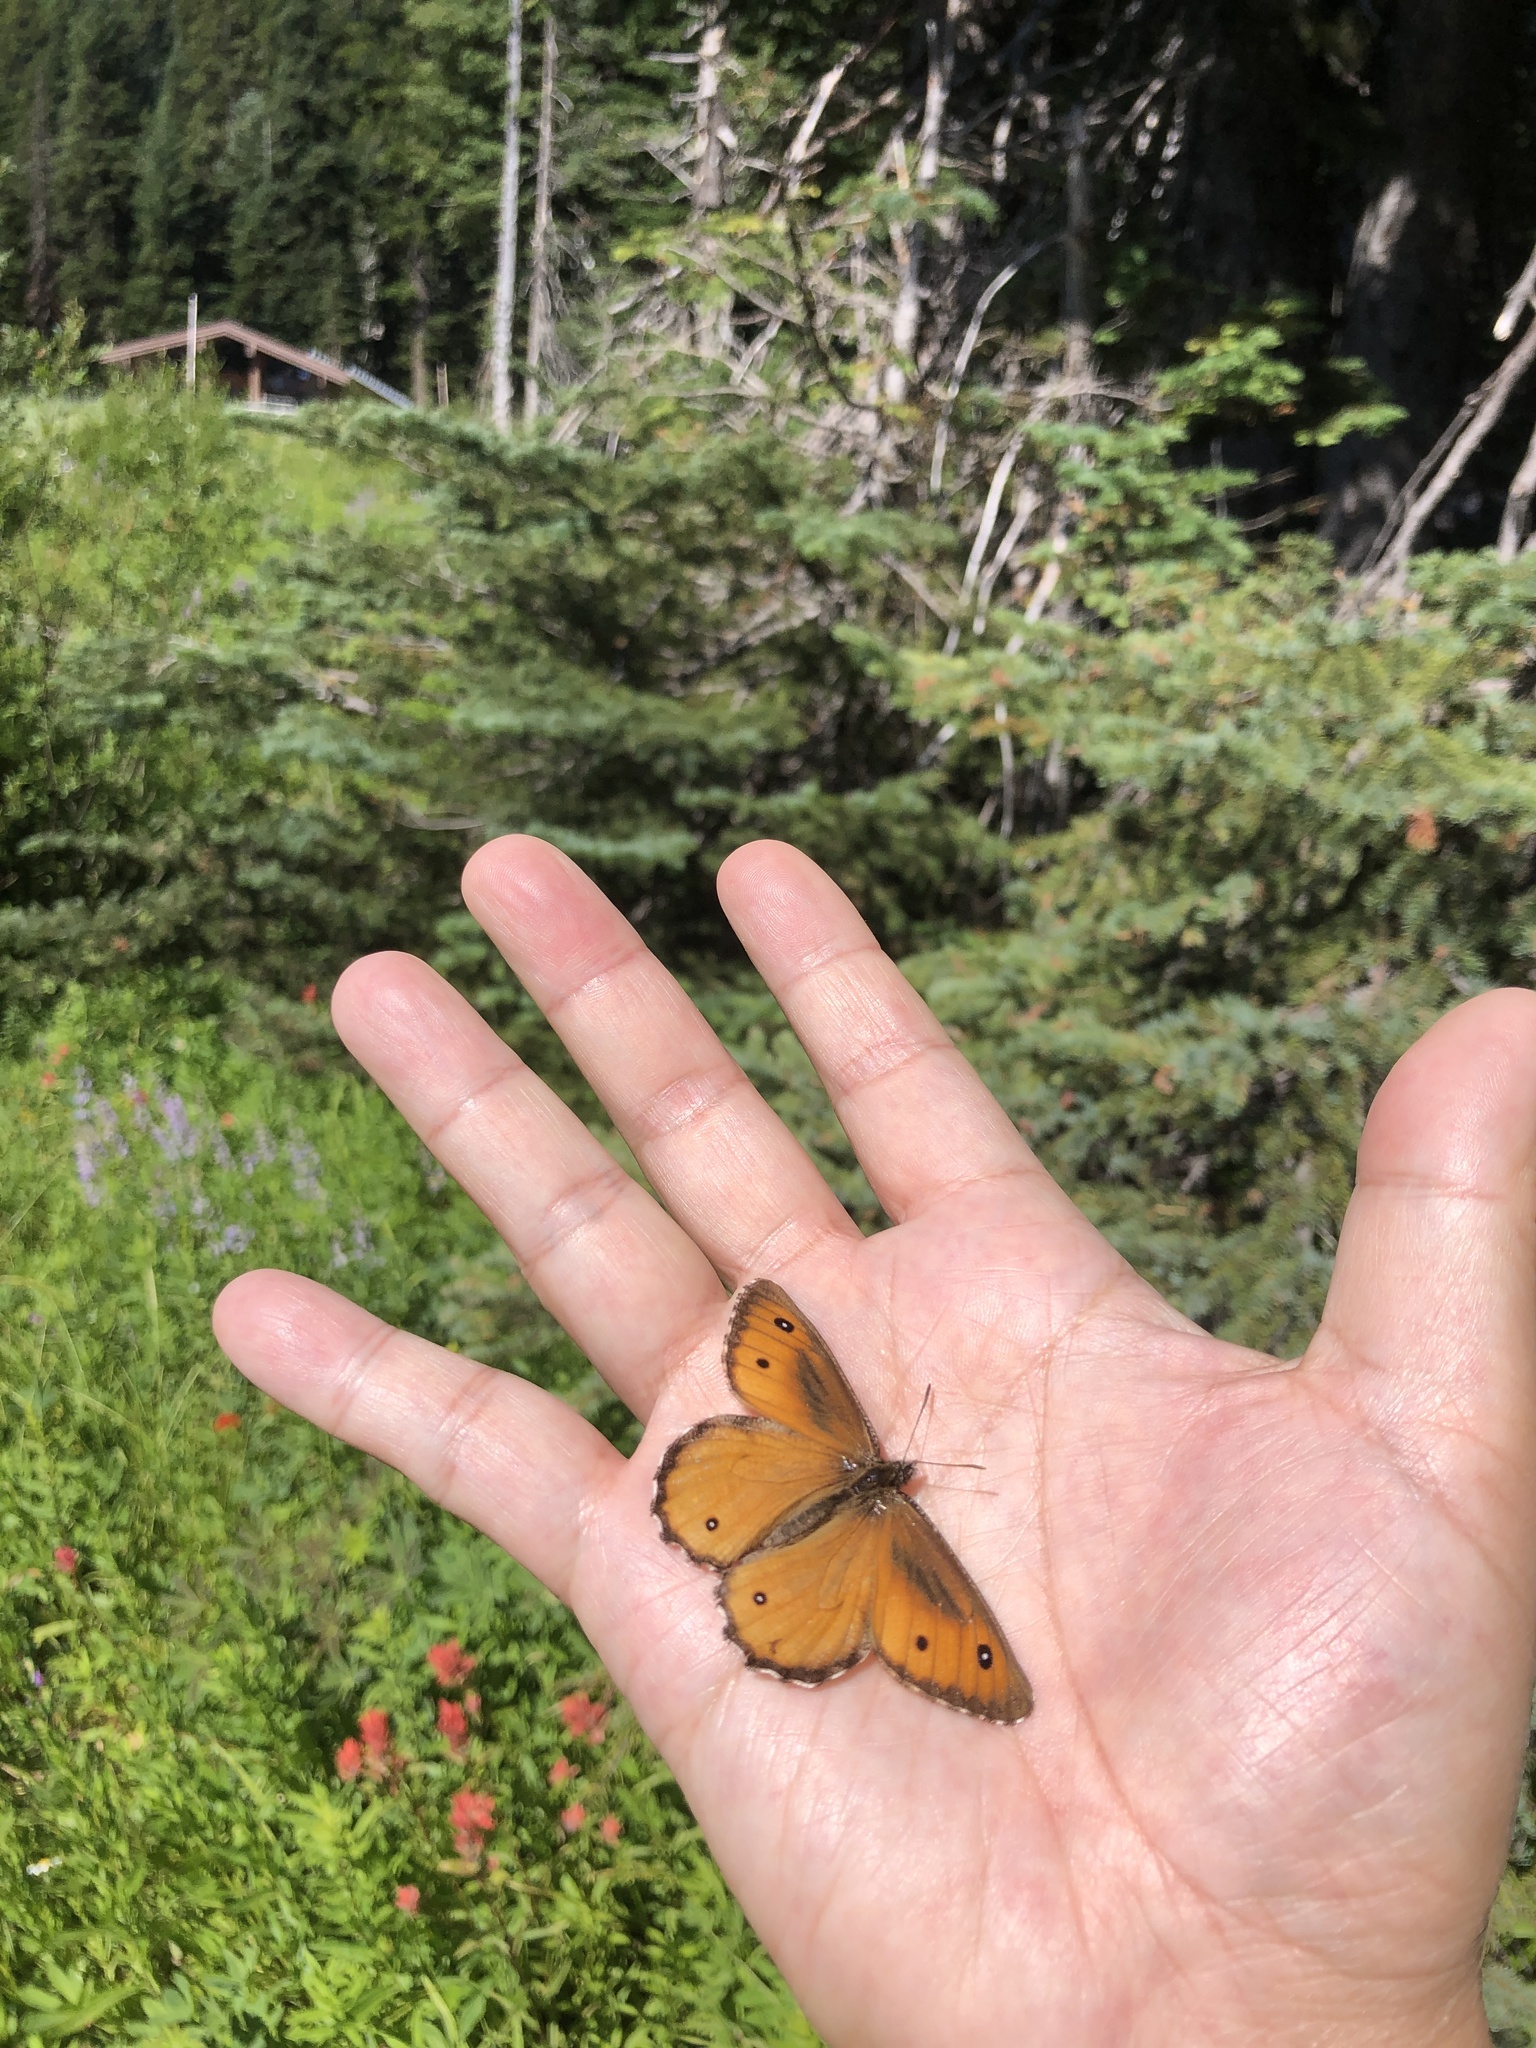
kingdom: Animalia
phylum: Arthropoda
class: Insecta
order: Lepidoptera
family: Nymphalidae
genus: Oeneis
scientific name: Oeneis nevadensis
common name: Great arctic
